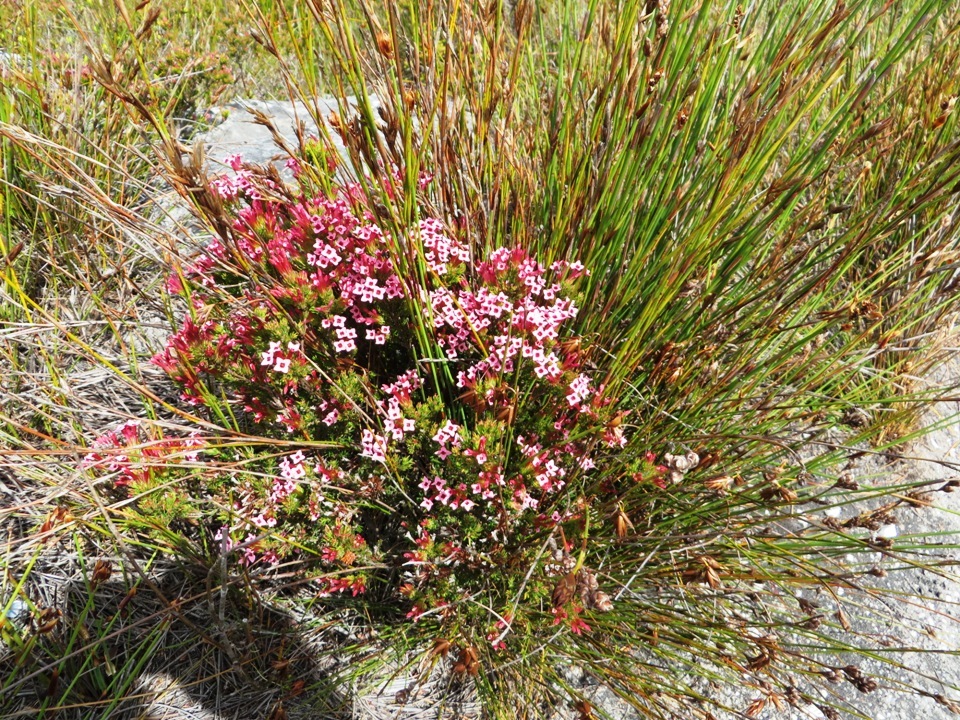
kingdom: Plantae
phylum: Tracheophyta
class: Magnoliopsida
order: Ericales
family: Ericaceae
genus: Erica
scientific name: Erica fastigiata
